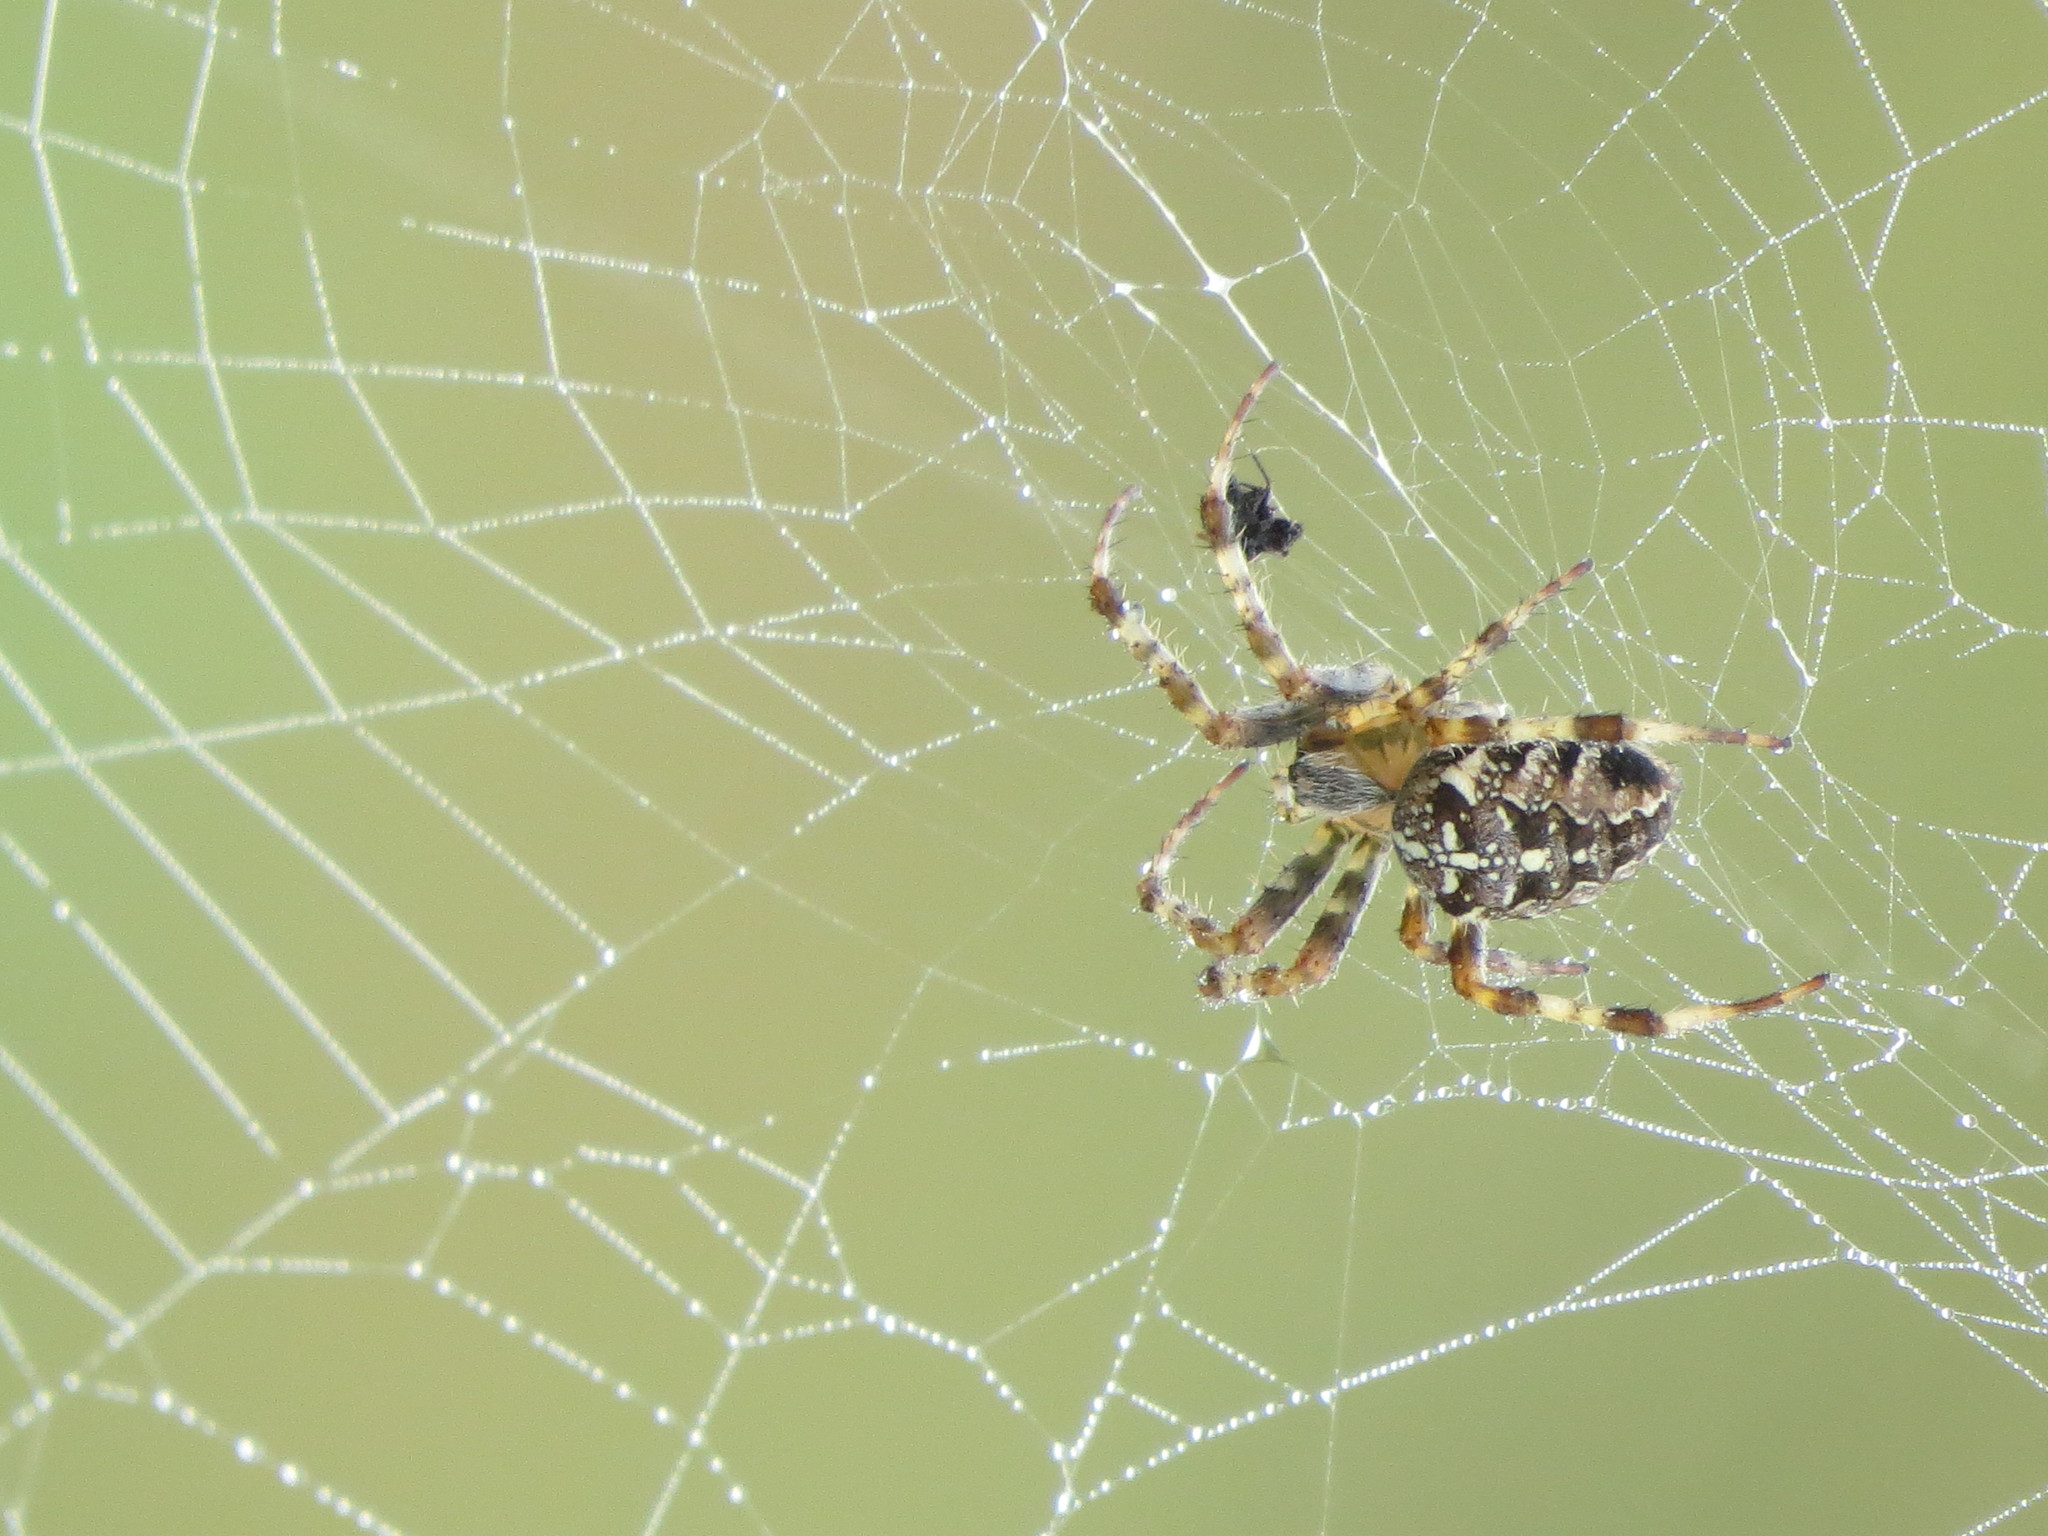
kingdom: Animalia
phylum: Arthropoda
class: Arachnida
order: Araneae
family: Araneidae
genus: Araneus
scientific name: Araneus diadematus
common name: Cross orbweaver
